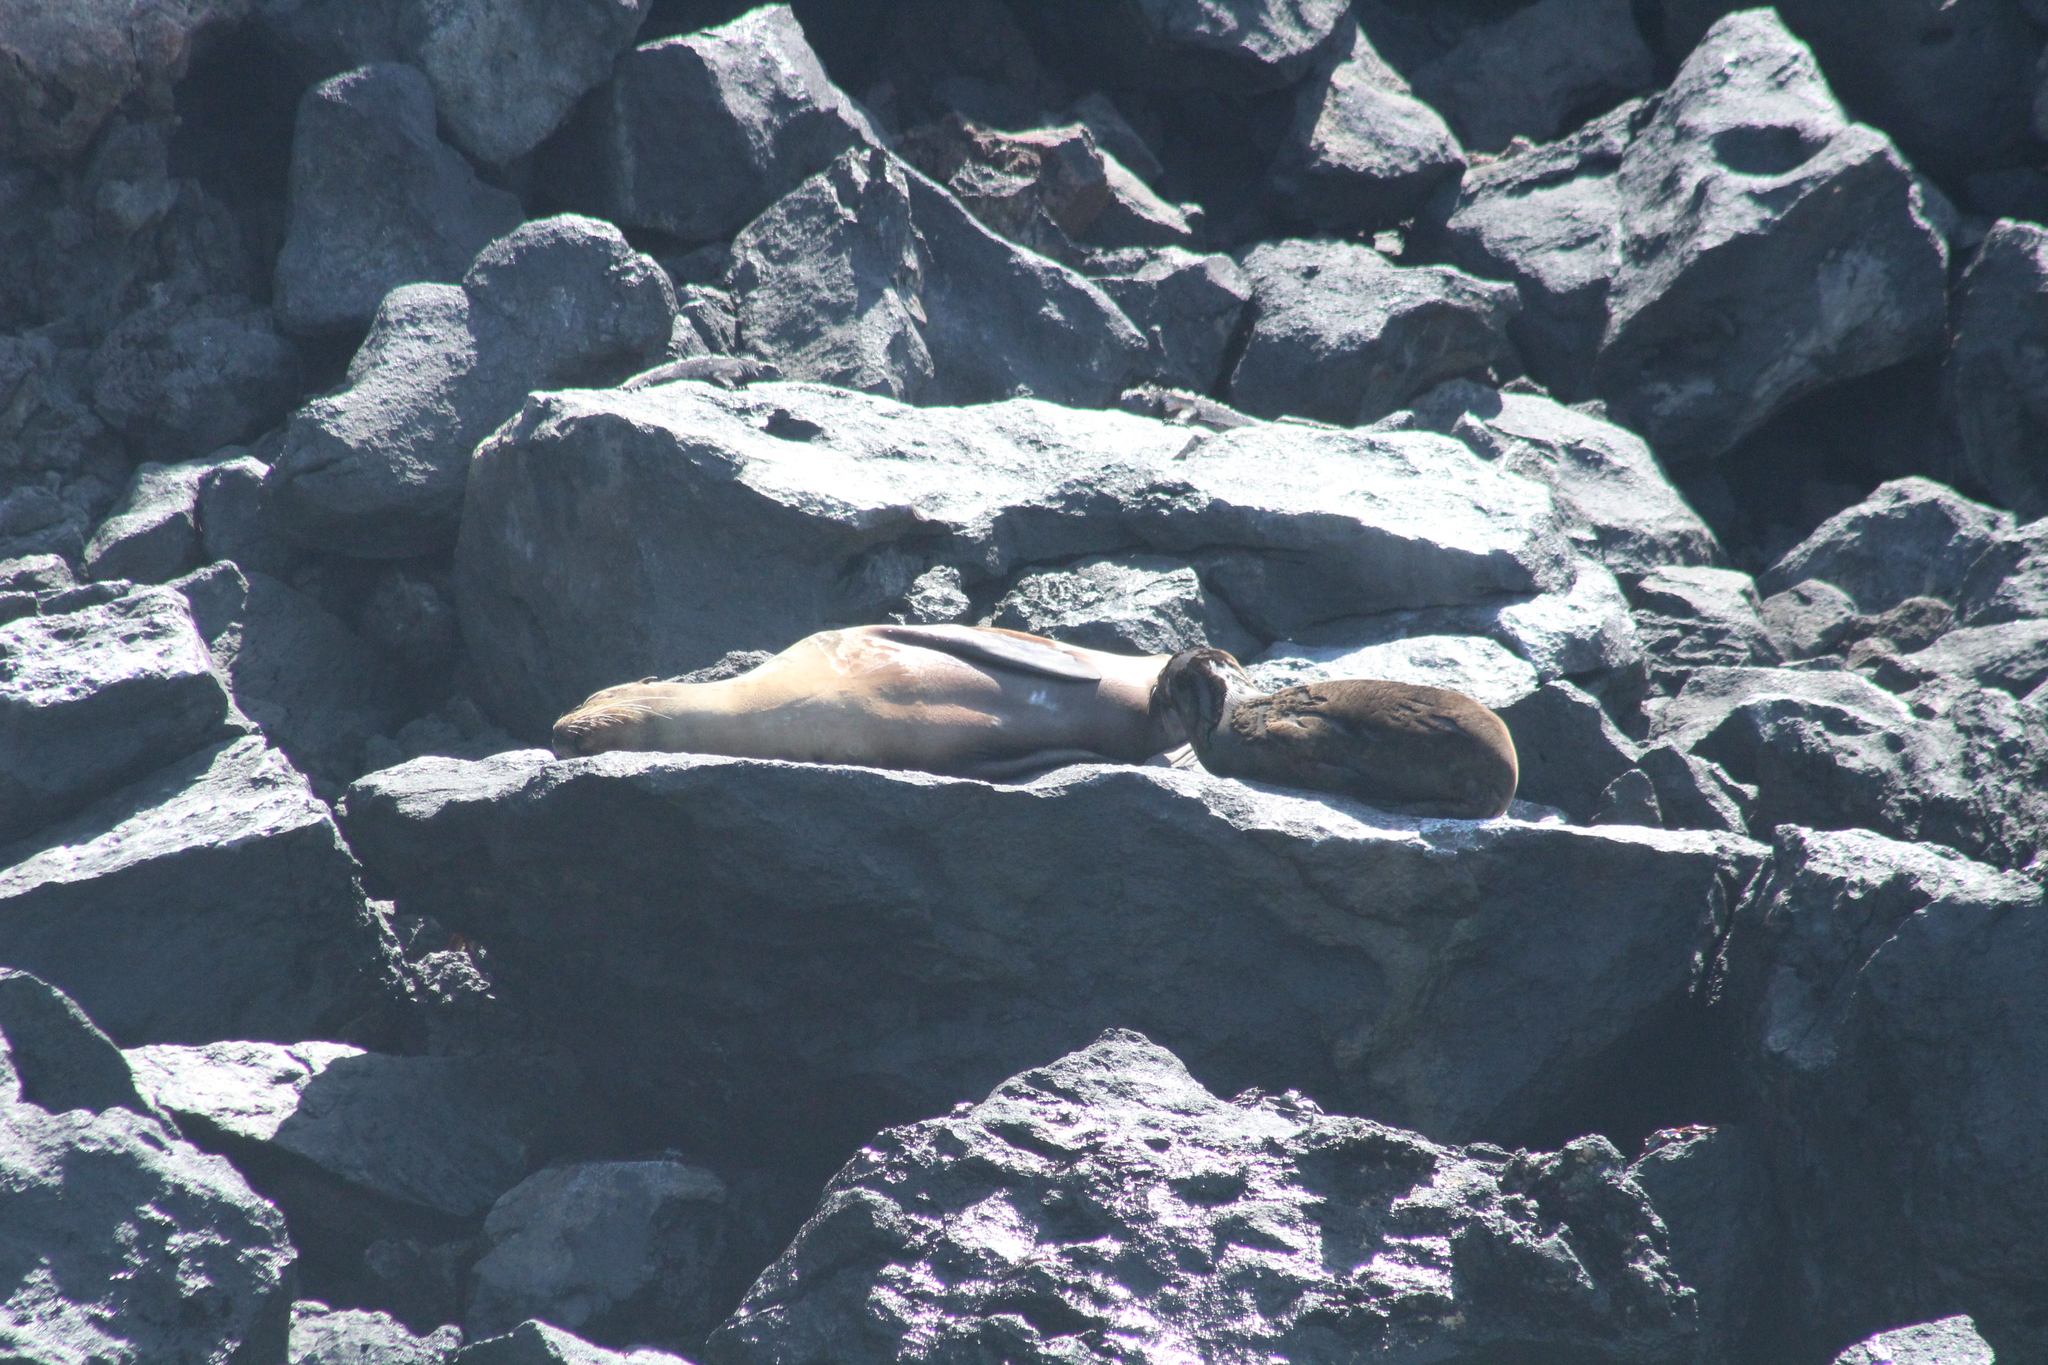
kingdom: Animalia
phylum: Chordata
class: Mammalia
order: Carnivora
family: Otariidae
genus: Zalophus
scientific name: Zalophus wollebaeki
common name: Galapagos sea lion
